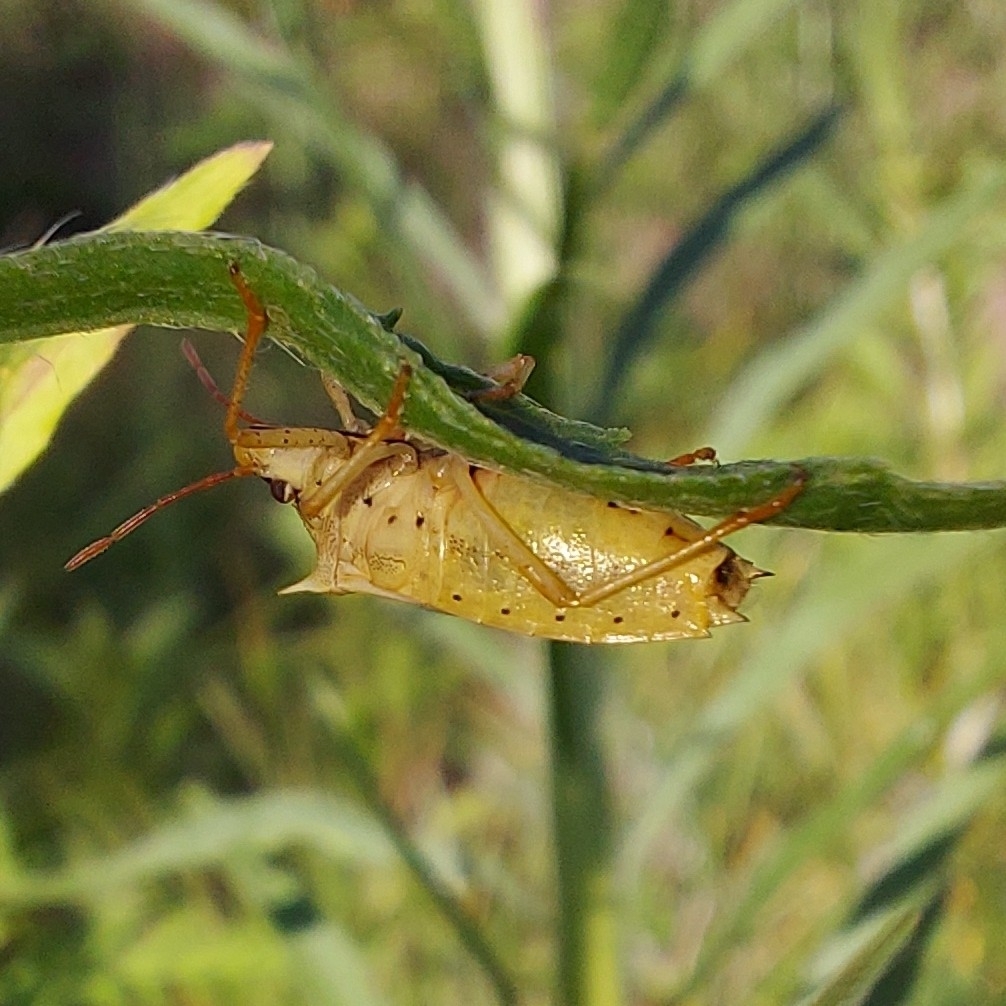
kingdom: Animalia
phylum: Arthropoda
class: Insecta
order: Hemiptera
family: Pentatomidae
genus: Oebalus
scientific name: Oebalus pugnax
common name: Rice stink bug
